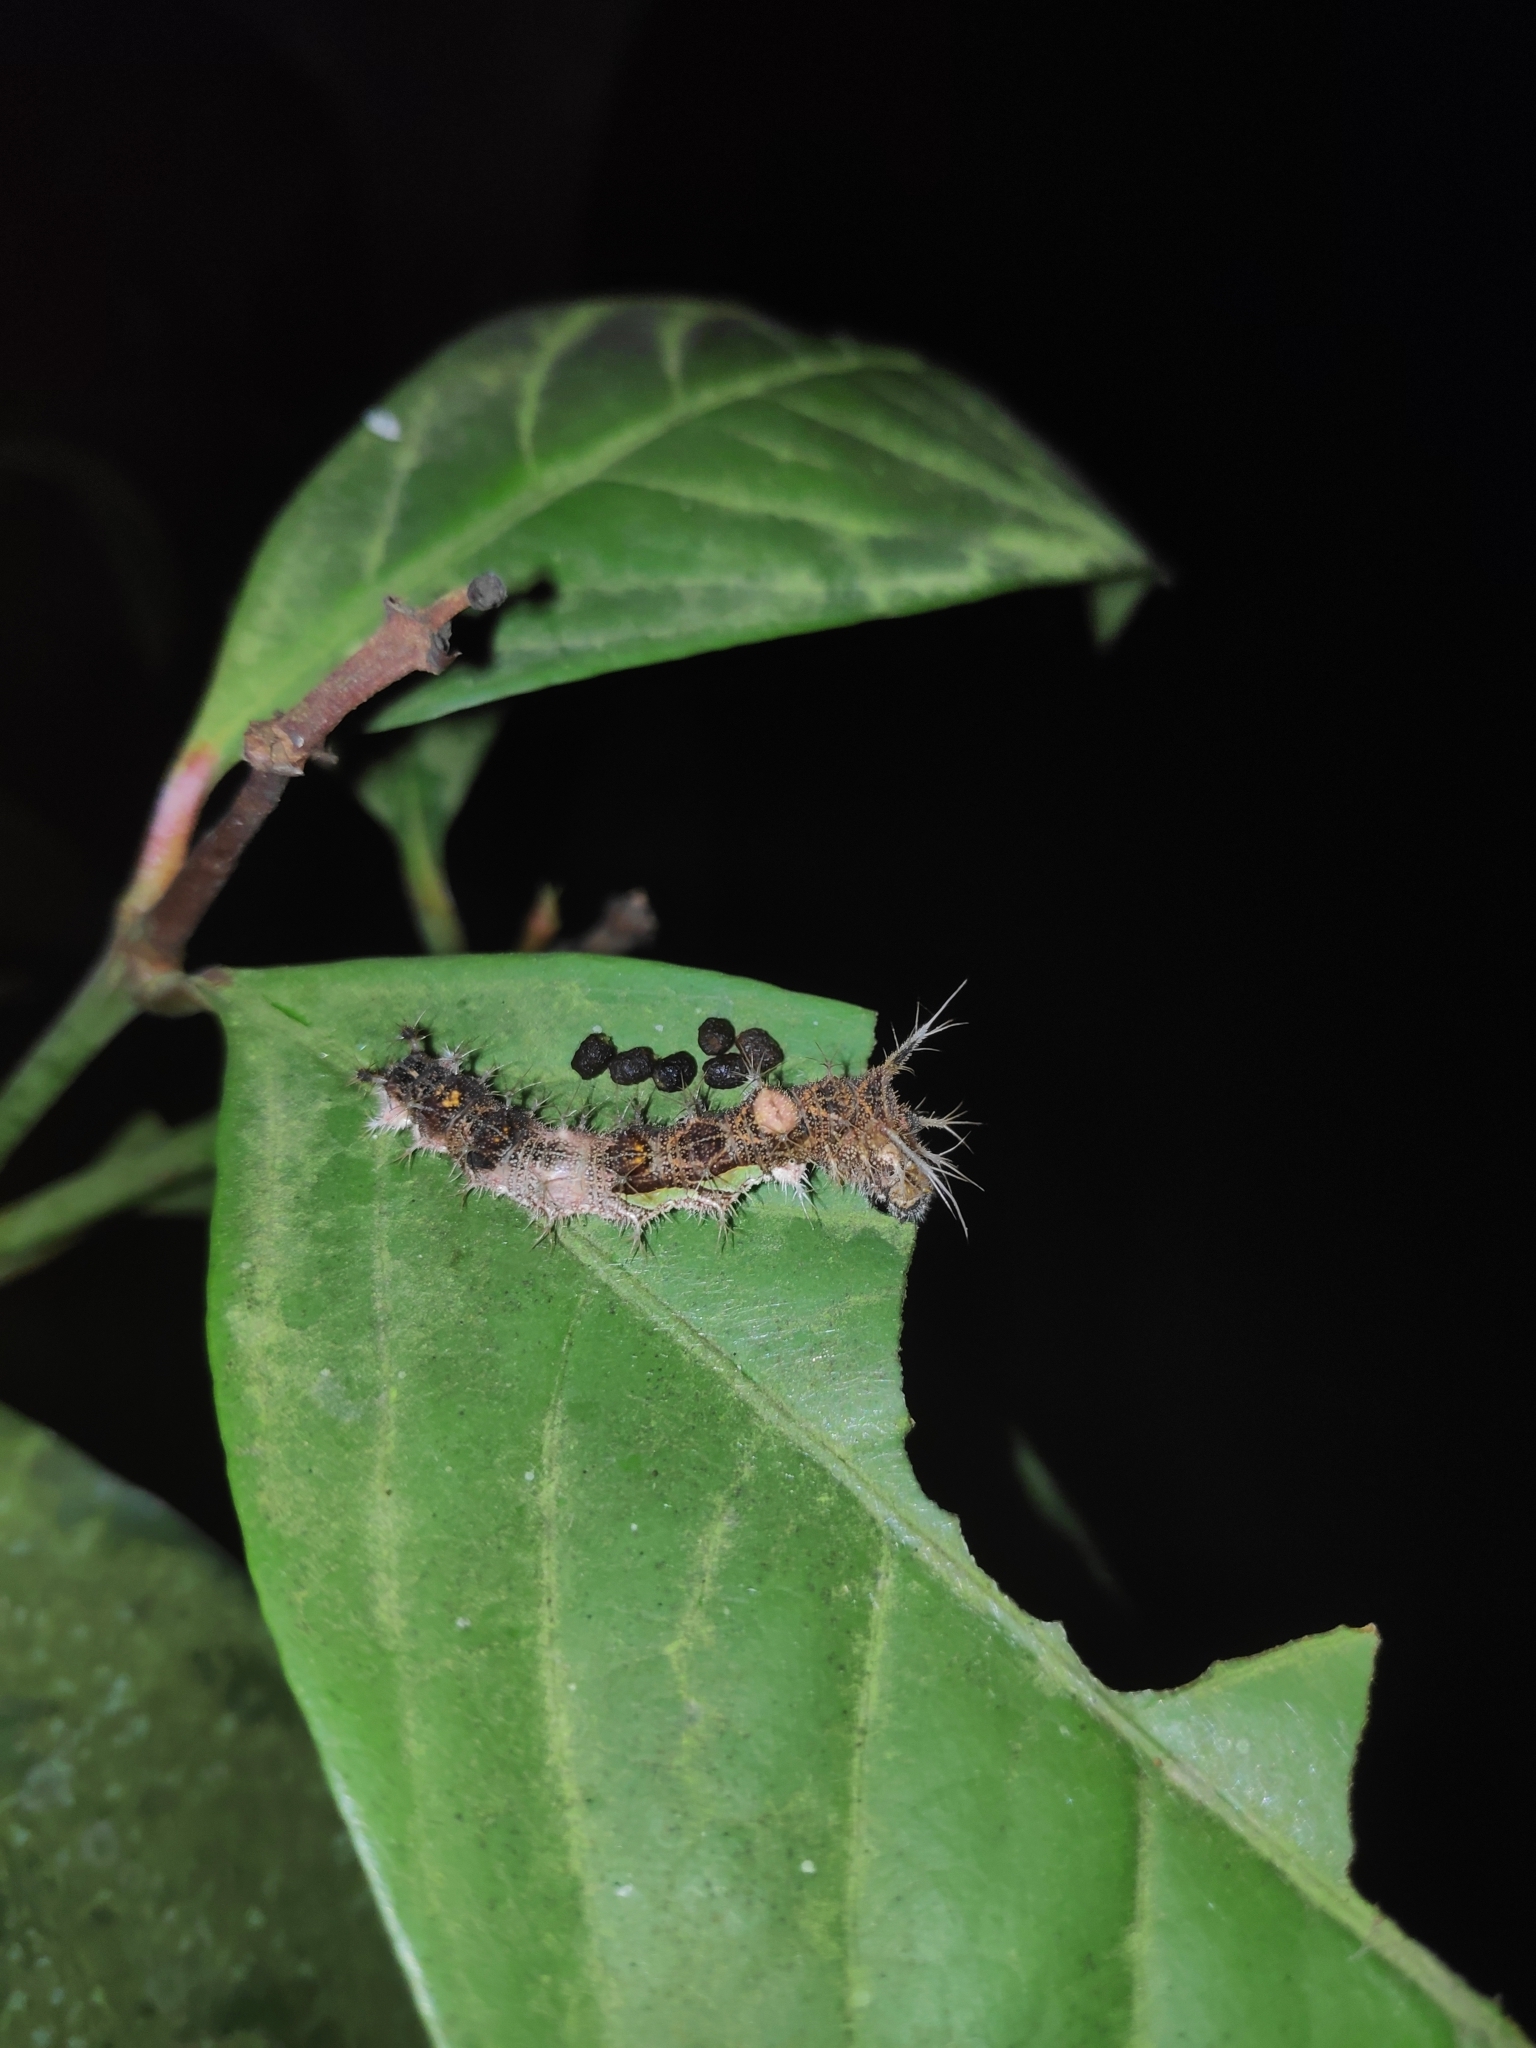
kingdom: Animalia
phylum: Arthropoda
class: Insecta
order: Lepidoptera
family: Nymphalidae
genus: Lebadea
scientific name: Lebadea martha
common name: Knight
